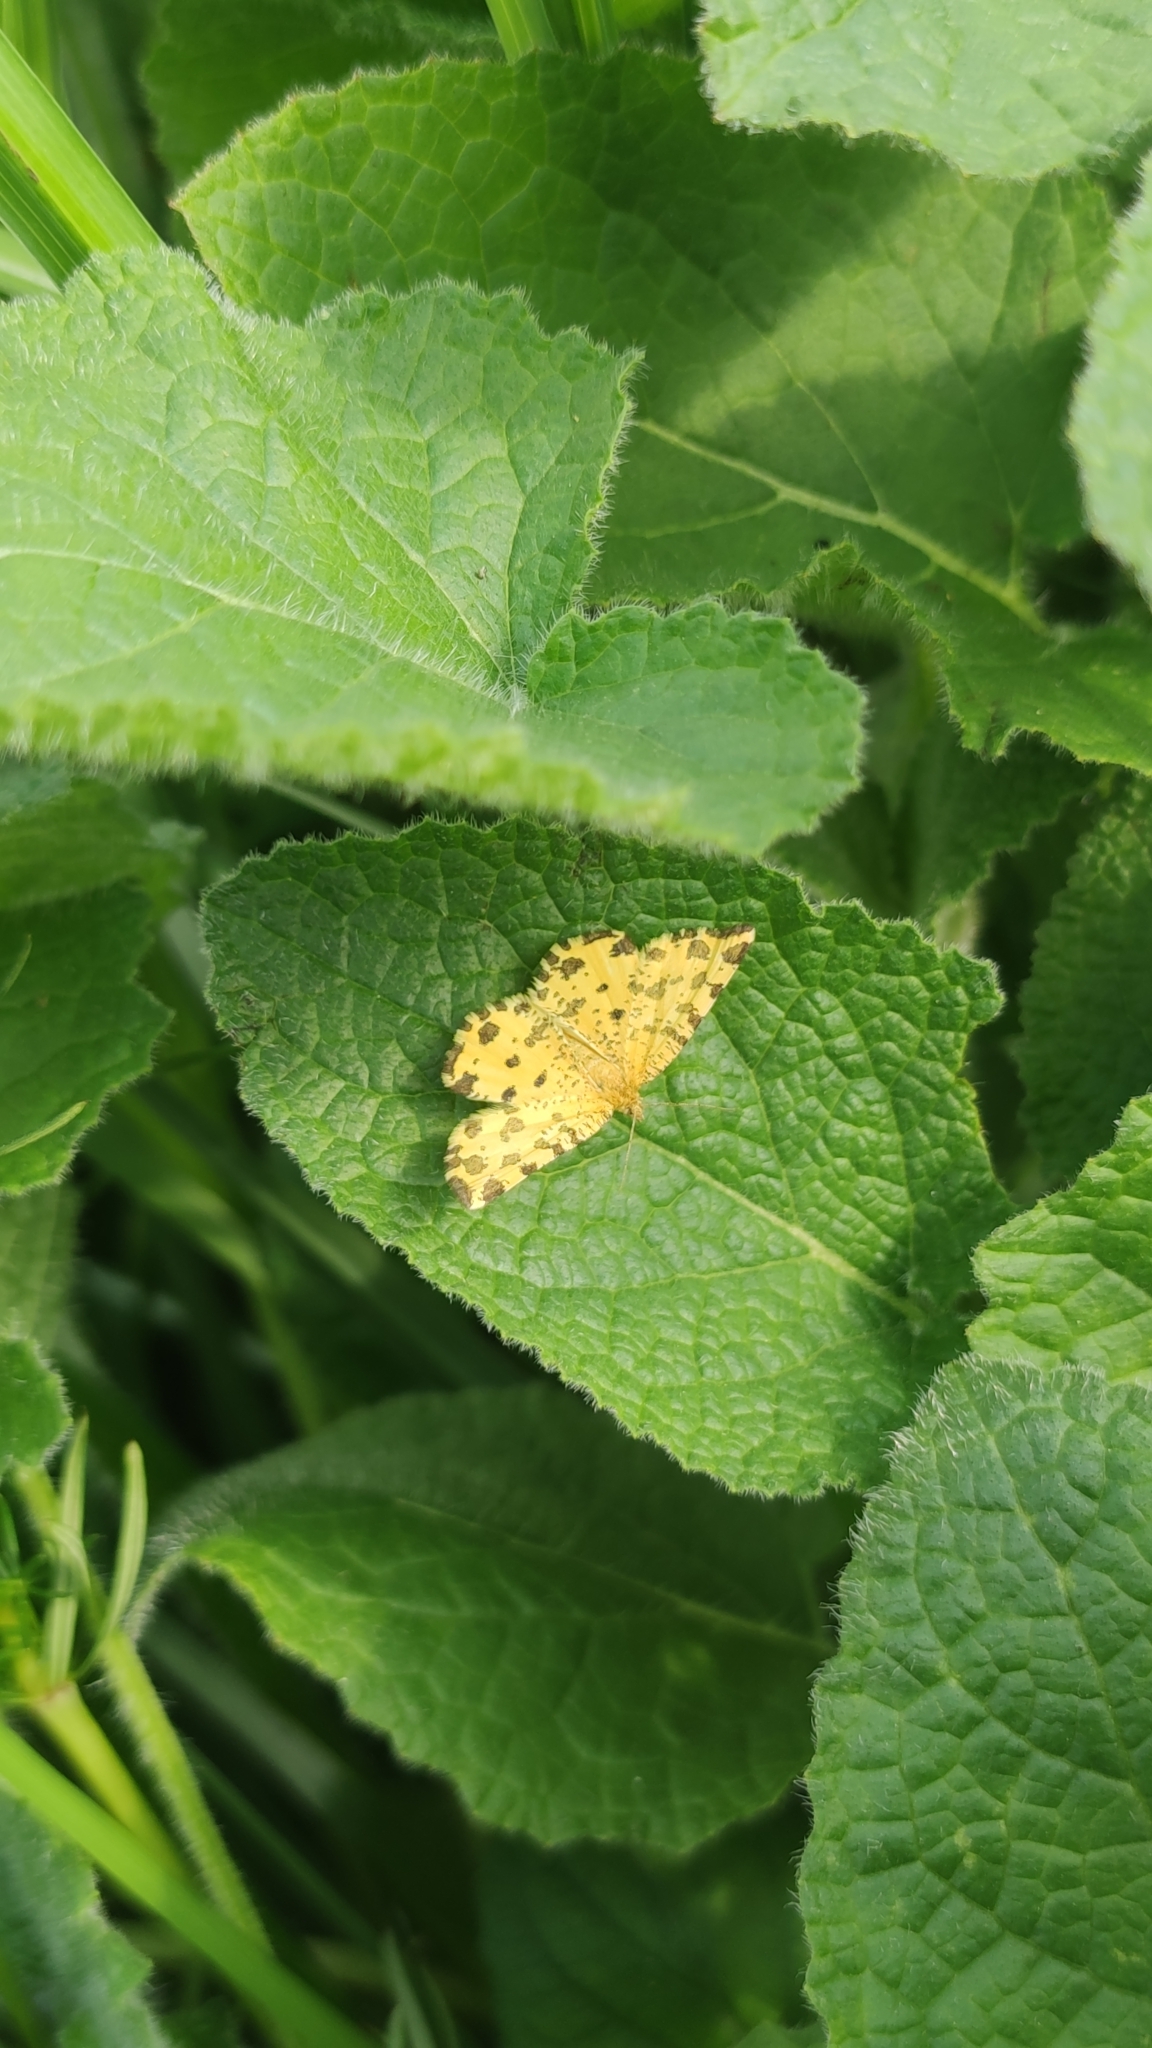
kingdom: Animalia
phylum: Arthropoda
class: Insecta
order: Lepidoptera
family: Geometridae
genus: Pseudopanthera
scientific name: Pseudopanthera macularia
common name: Speckled yellow
